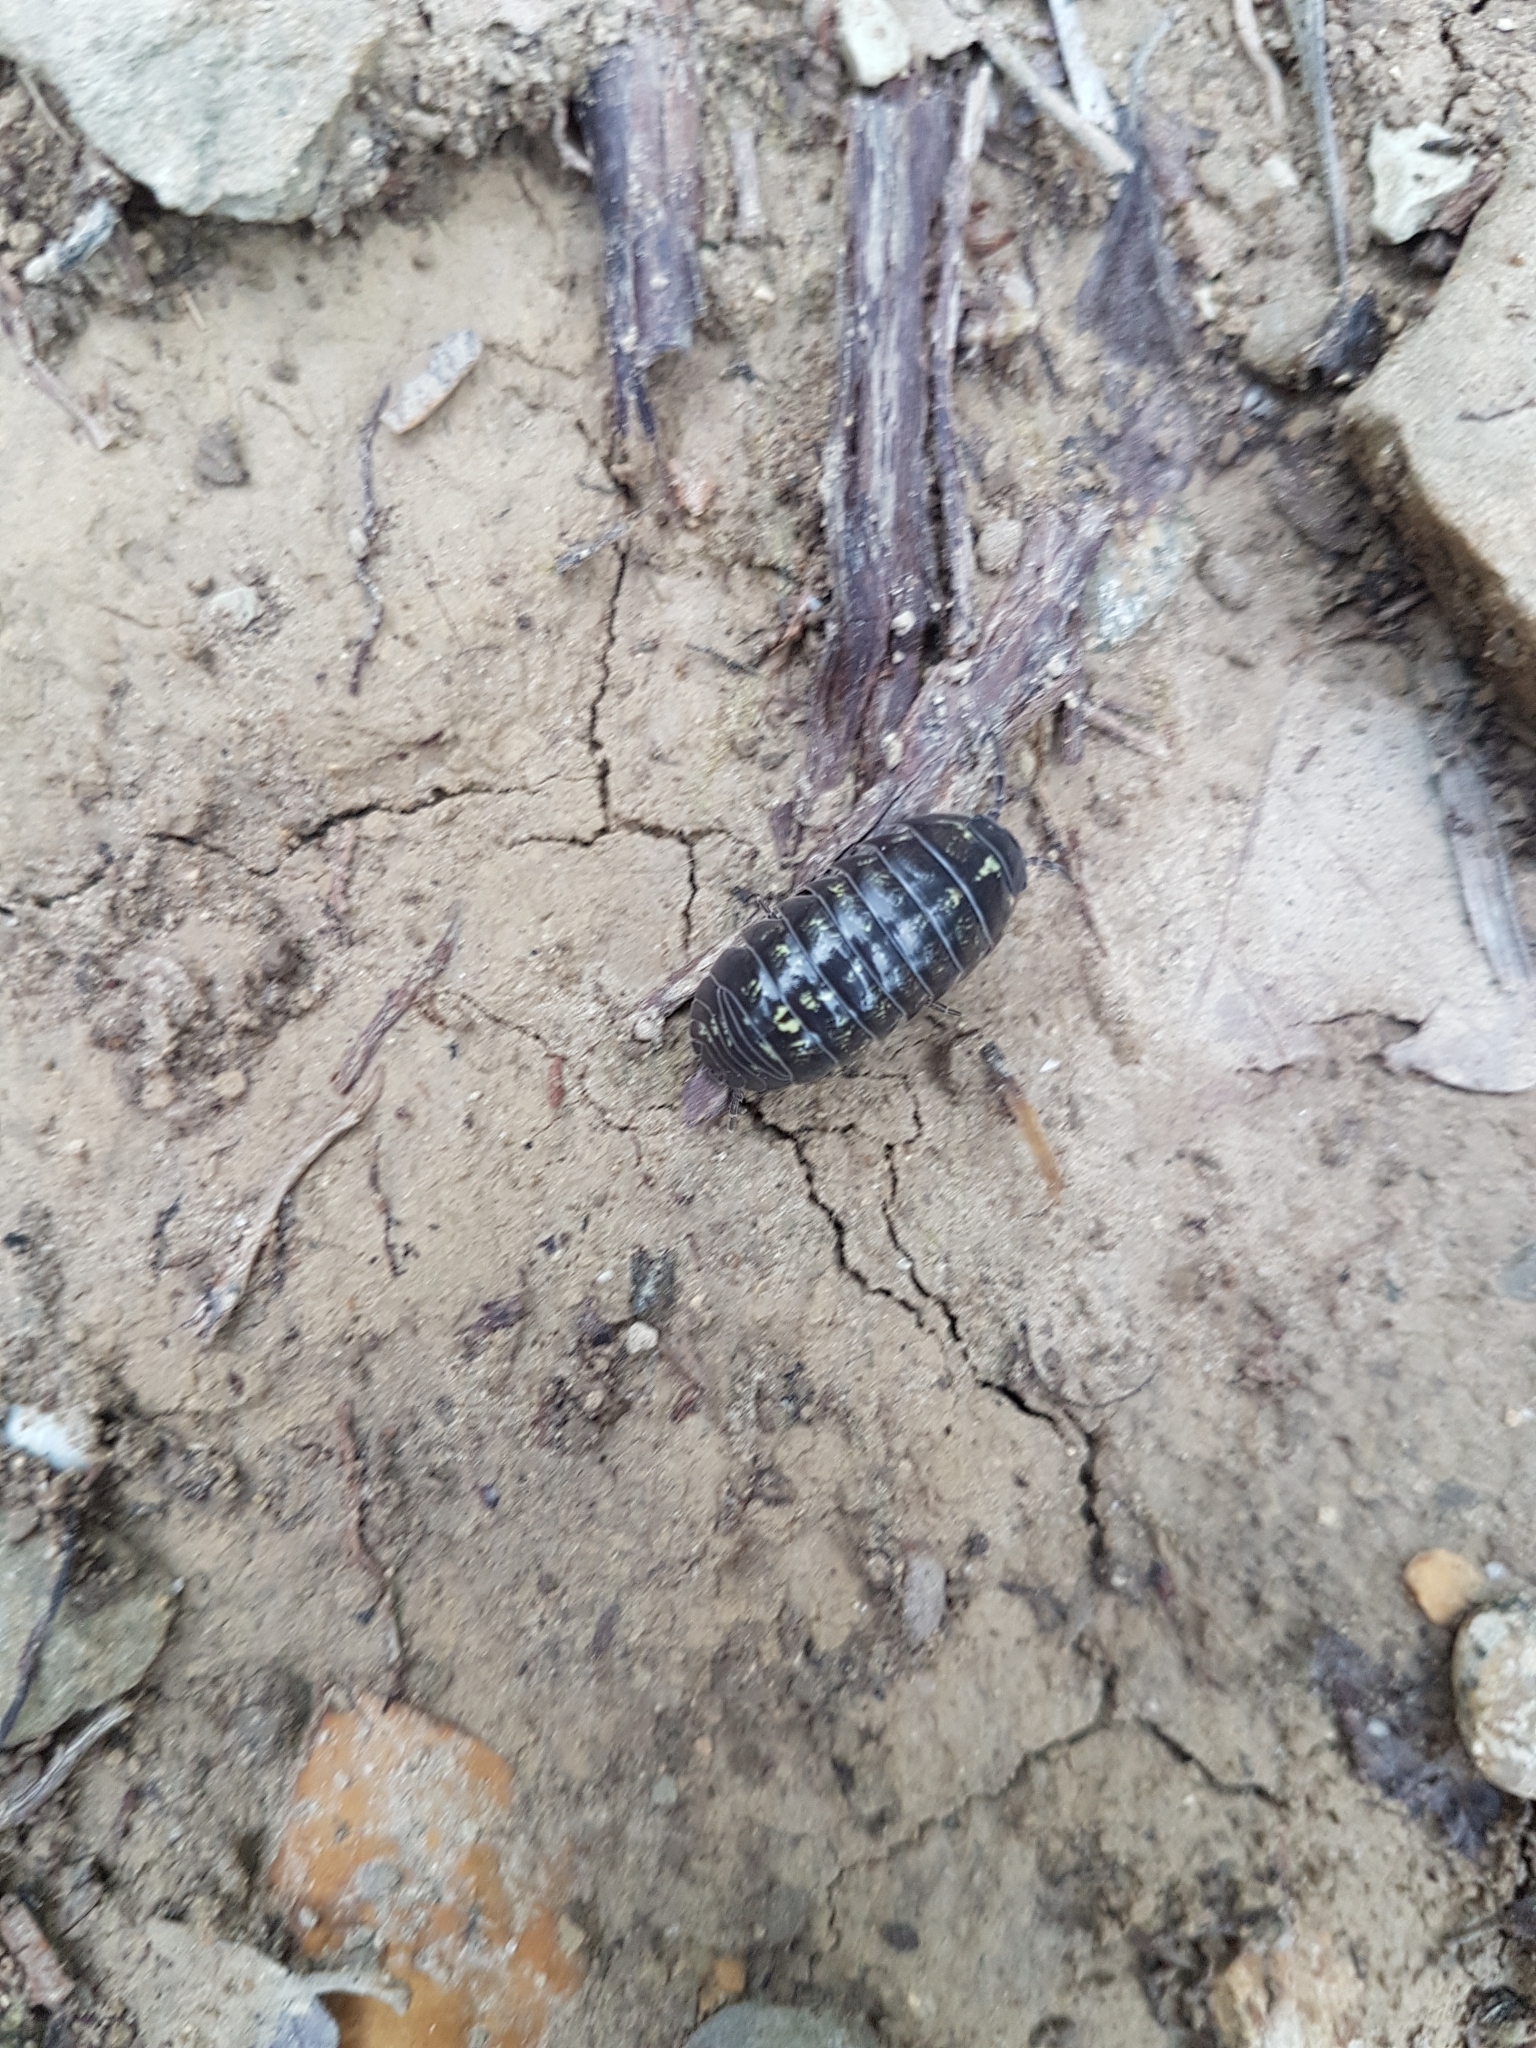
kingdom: Animalia
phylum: Arthropoda
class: Malacostraca
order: Isopoda
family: Armadillidiidae
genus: Armadillidium
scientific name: Armadillidium vulgare
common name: Common pill woodlouse
